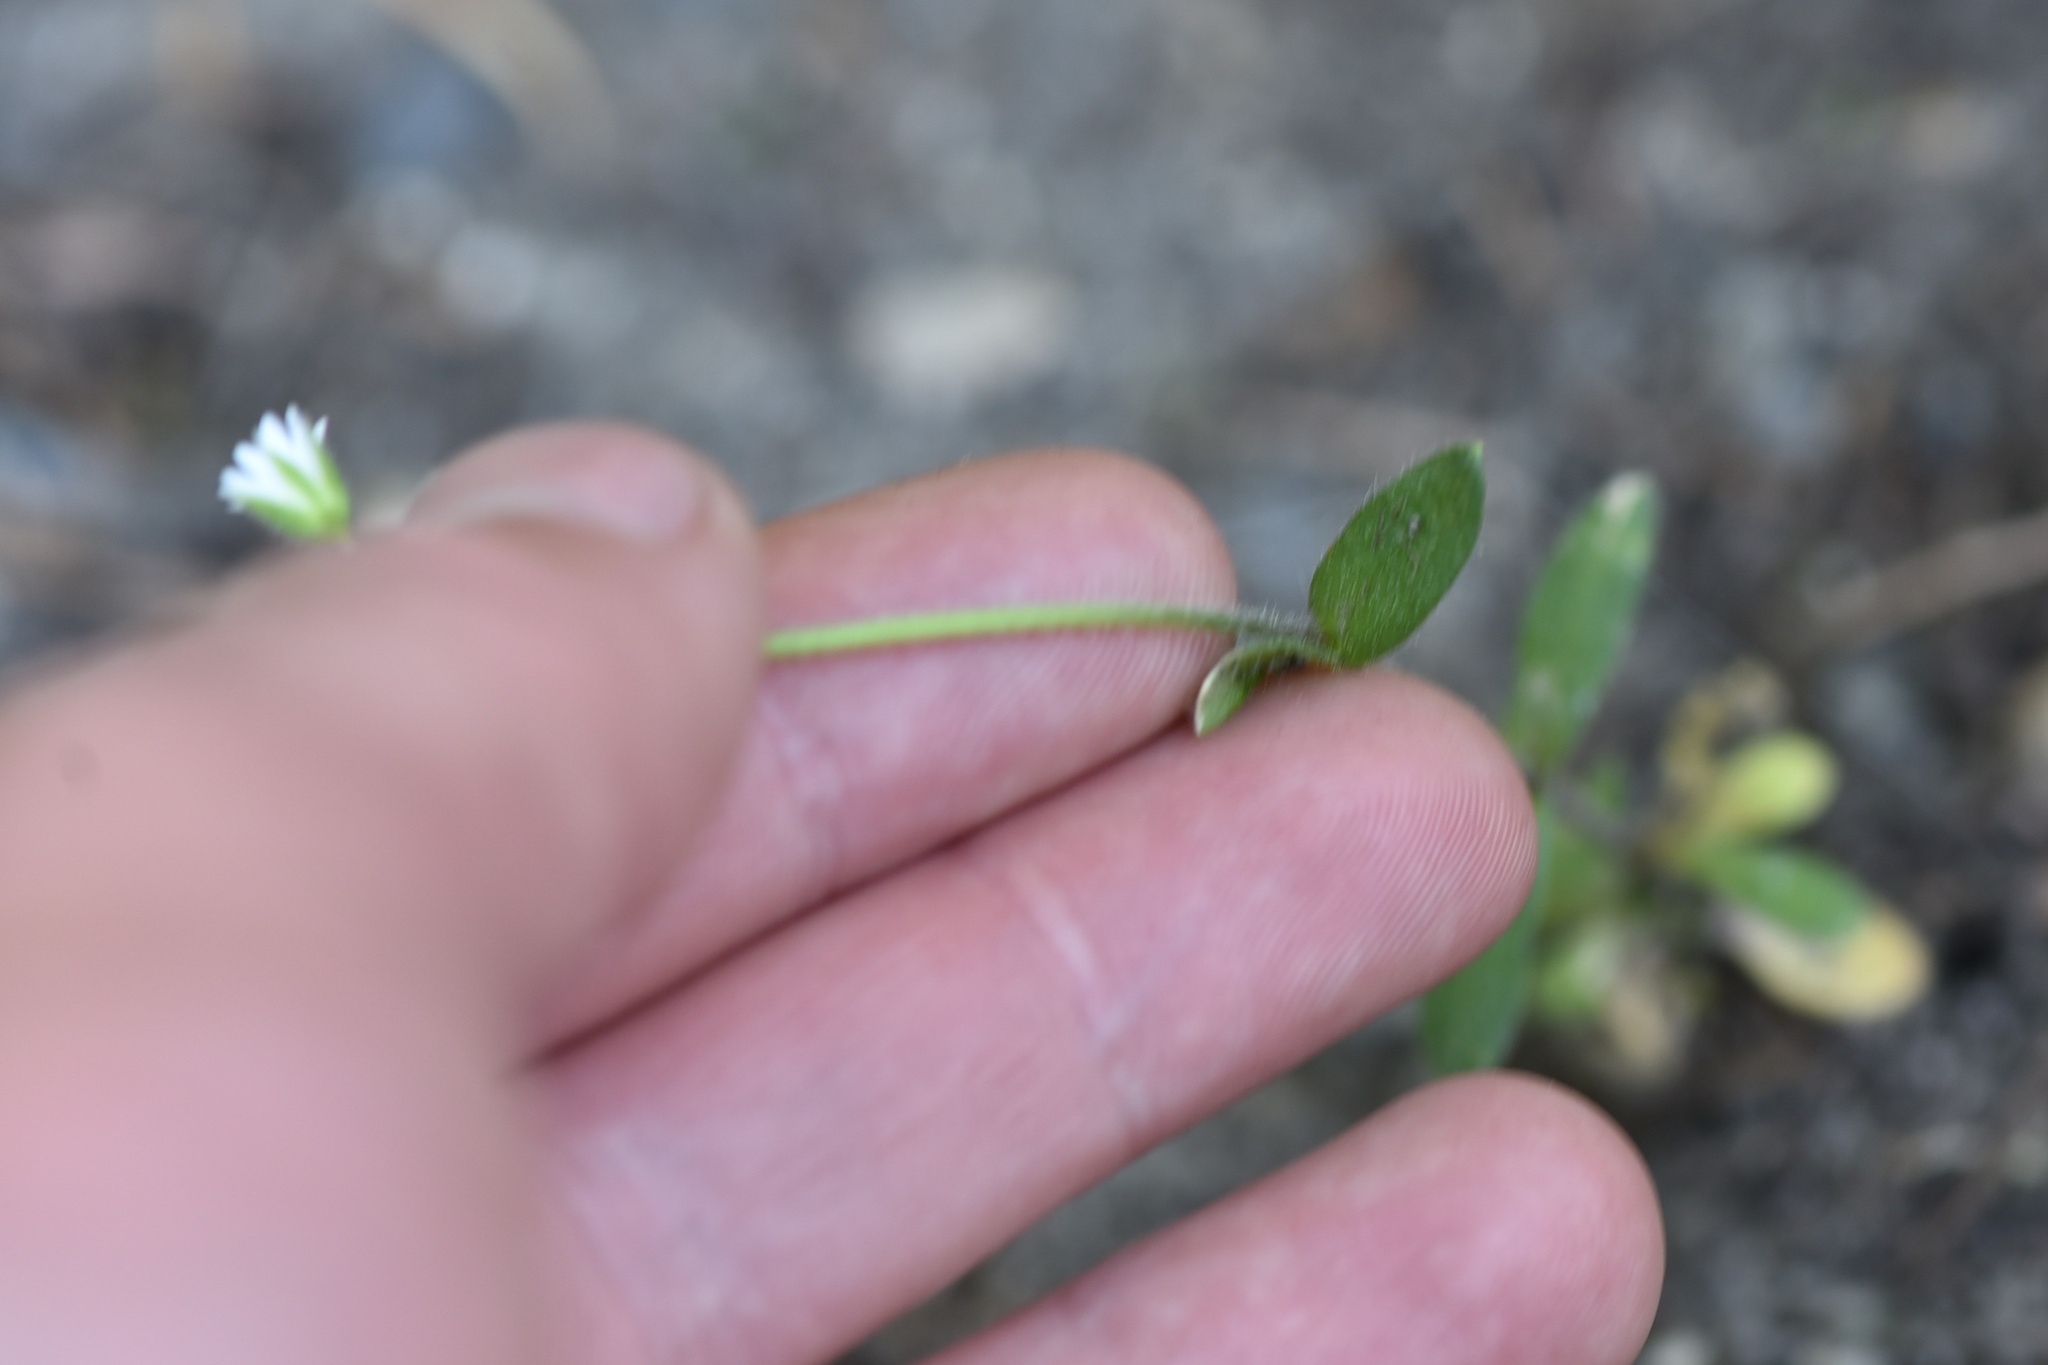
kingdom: Plantae
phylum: Tracheophyta
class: Magnoliopsida
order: Caryophyllales
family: Caryophyllaceae
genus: Cerastium
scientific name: Cerastium fontanum
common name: Common mouse-ear
